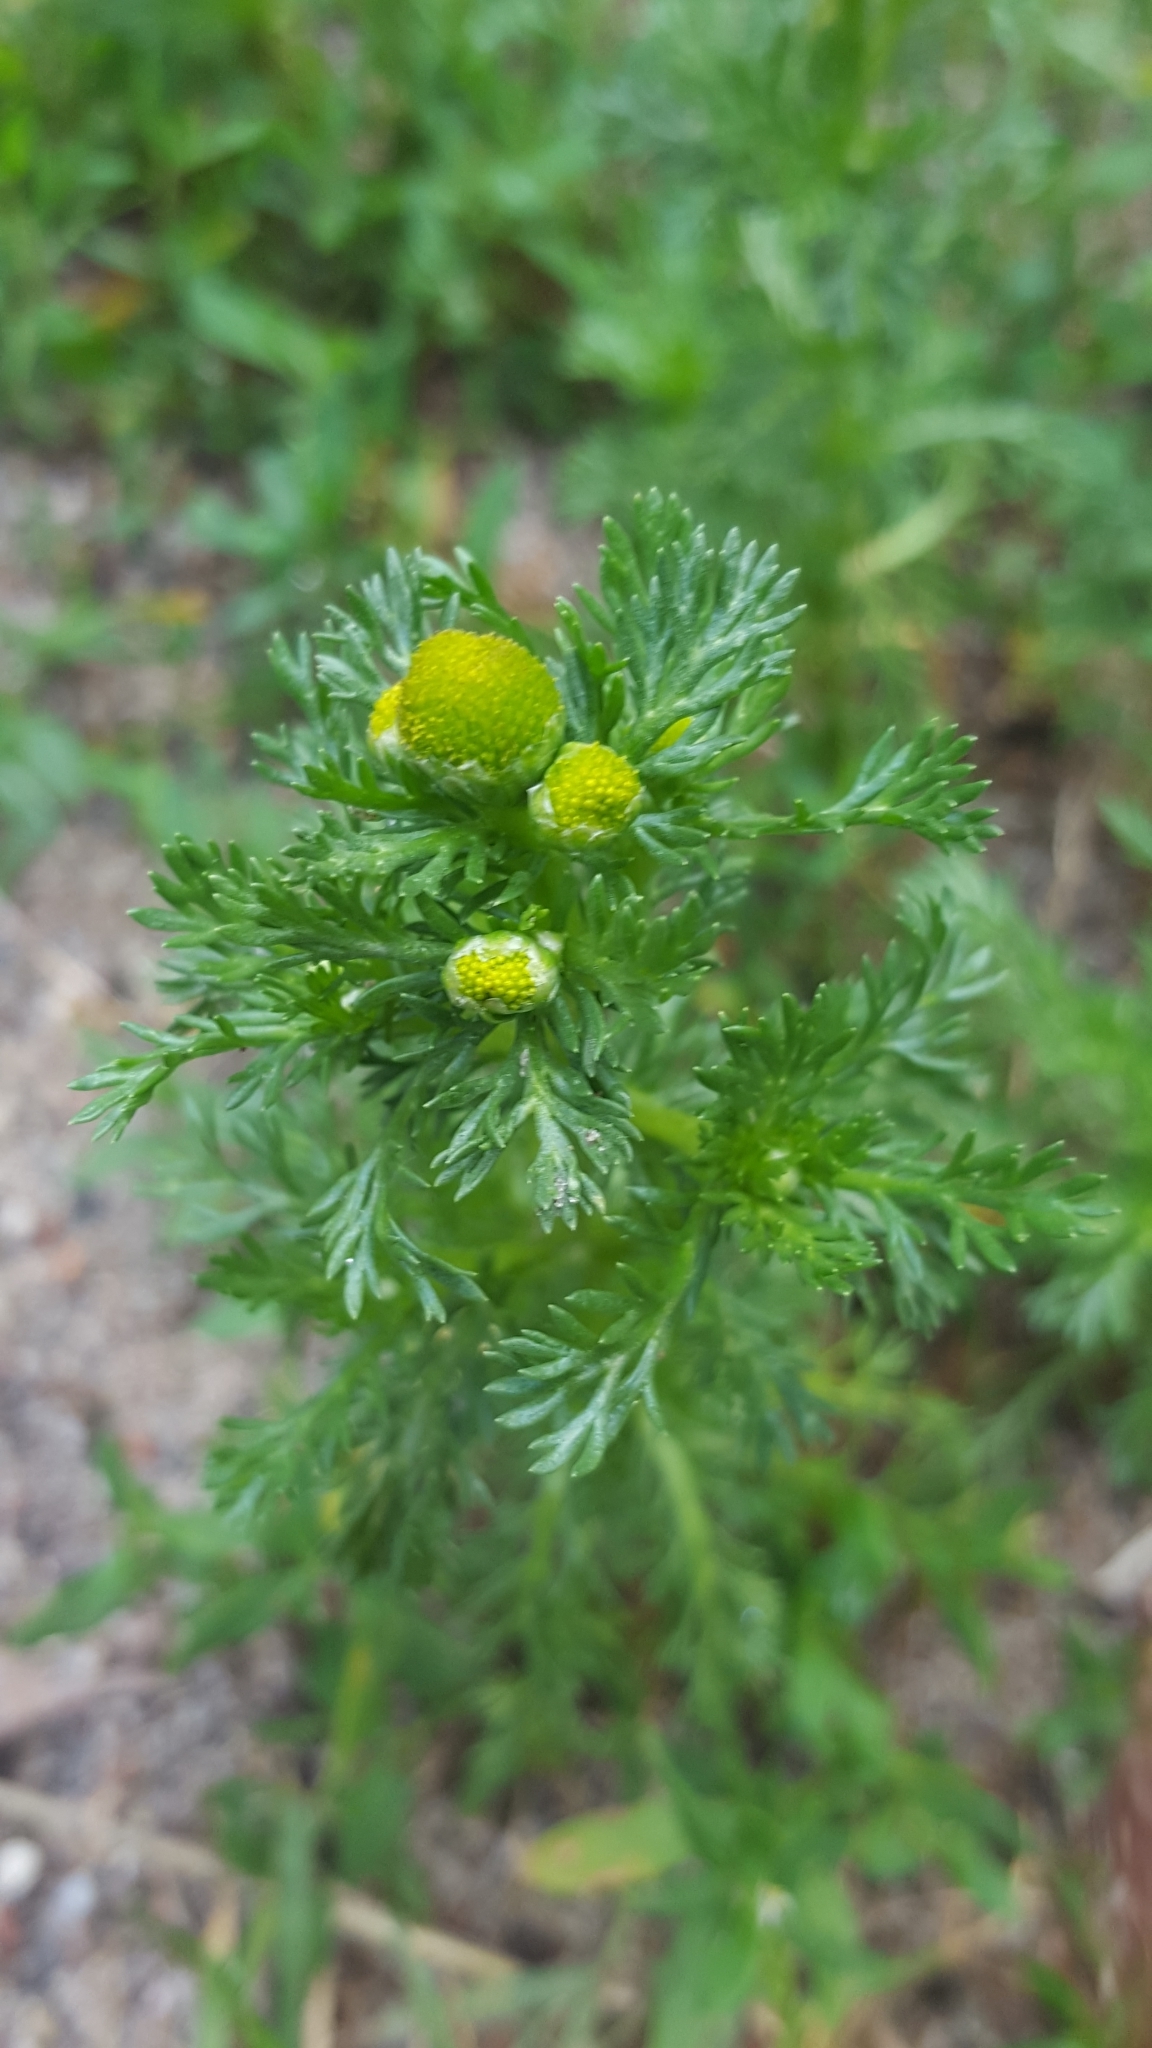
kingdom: Plantae
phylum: Tracheophyta
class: Magnoliopsida
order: Asterales
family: Asteraceae
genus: Matricaria
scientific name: Matricaria discoidea
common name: Disc mayweed
